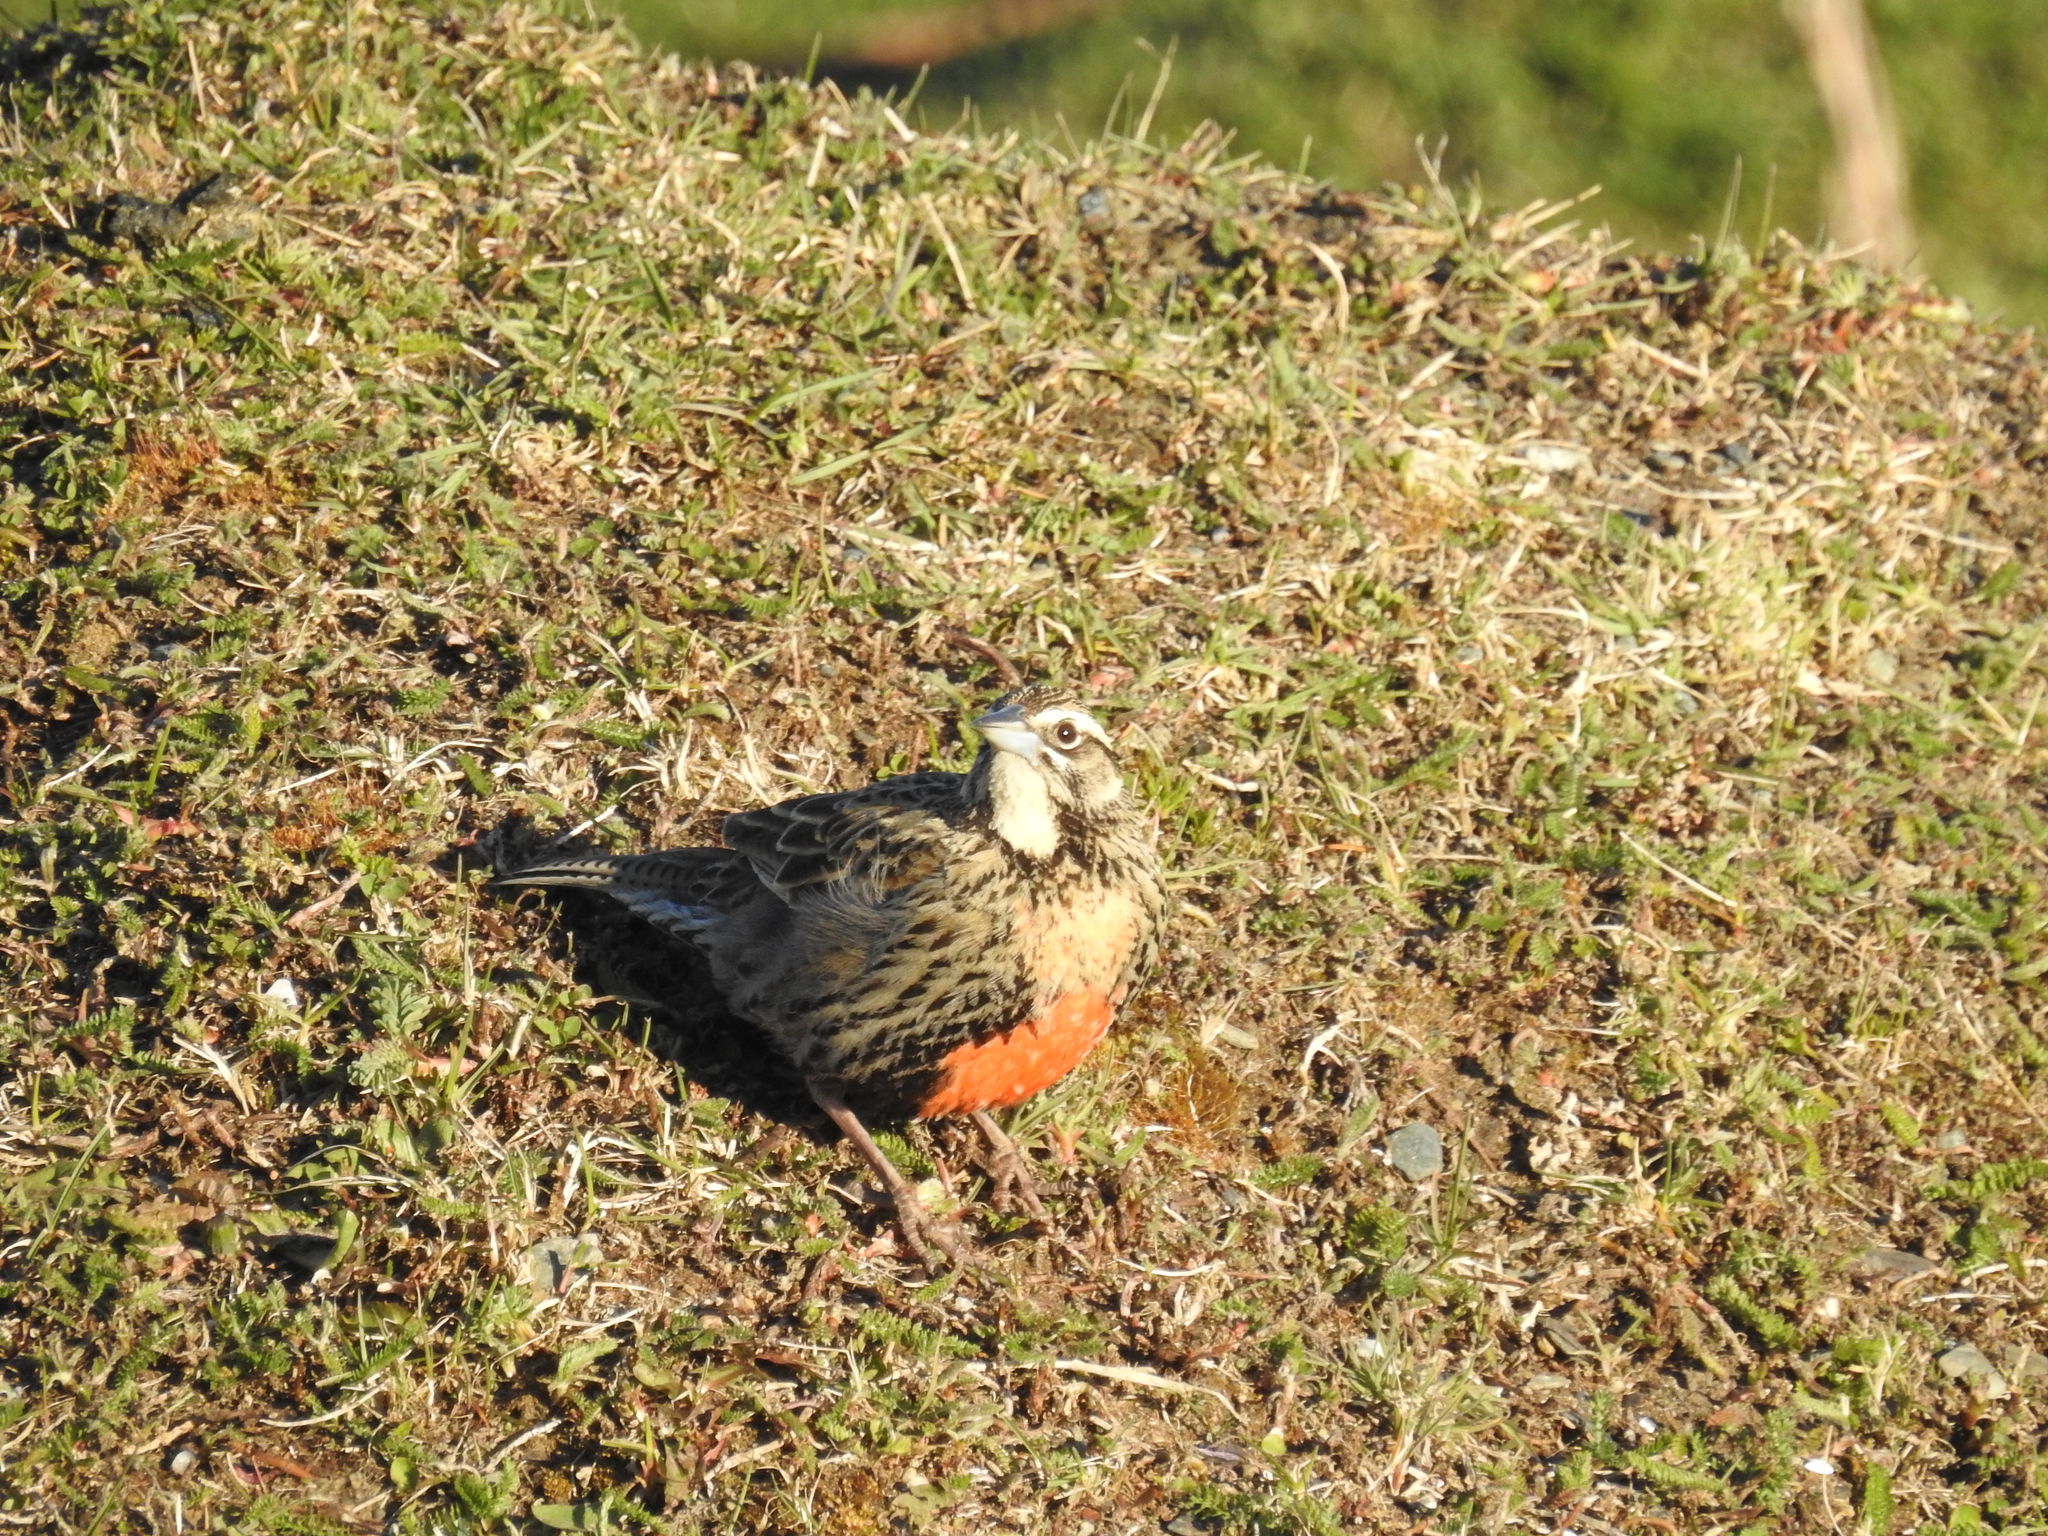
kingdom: Animalia
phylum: Chordata
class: Aves
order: Passeriformes
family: Icteridae
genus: Sturnella
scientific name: Sturnella loyca
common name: Long-tailed meadowlark
